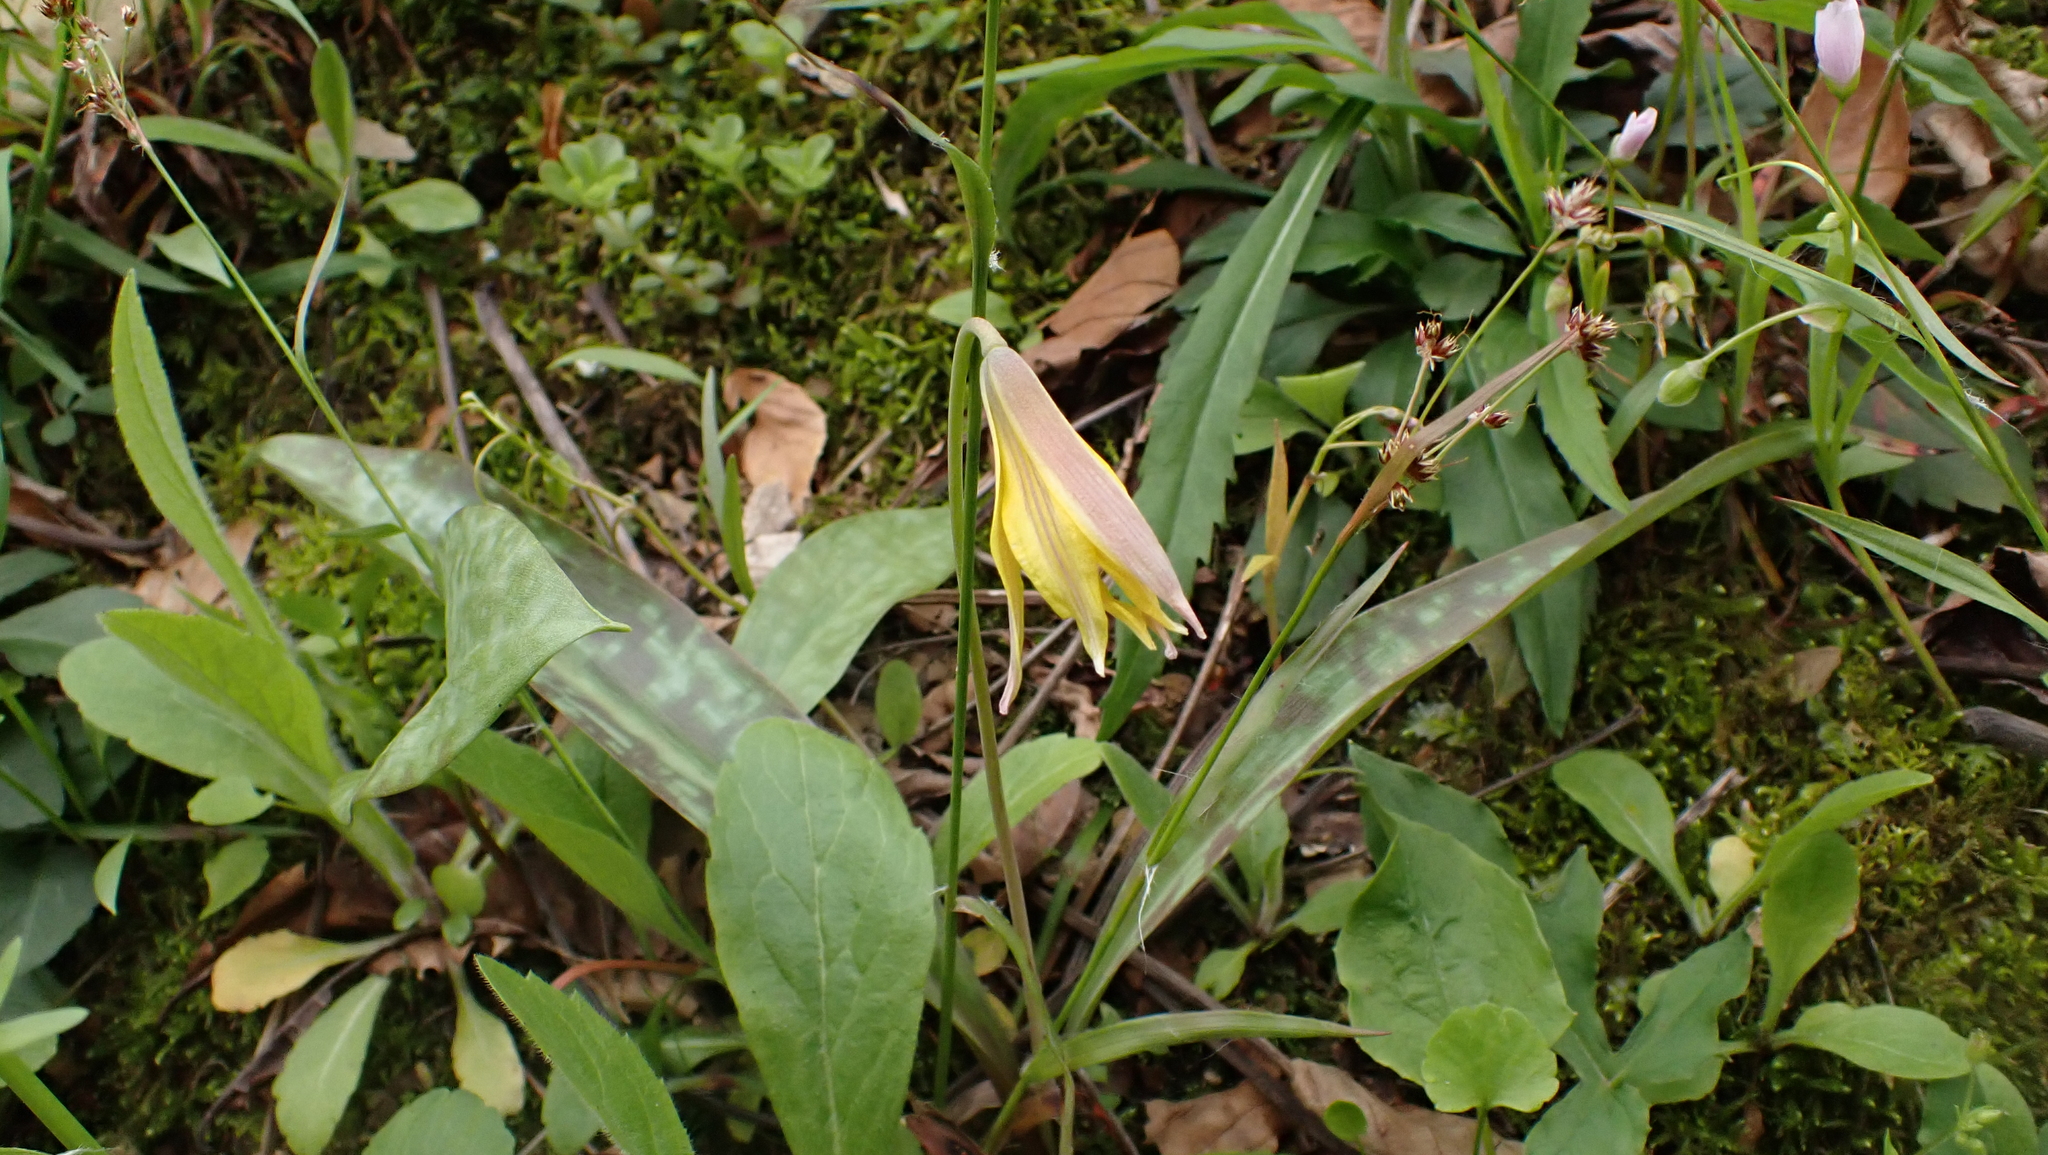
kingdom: Plantae
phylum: Tracheophyta
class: Liliopsida
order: Liliales
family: Liliaceae
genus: Erythronium
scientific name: Erythronium americanum
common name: Yellow adder's-tongue
